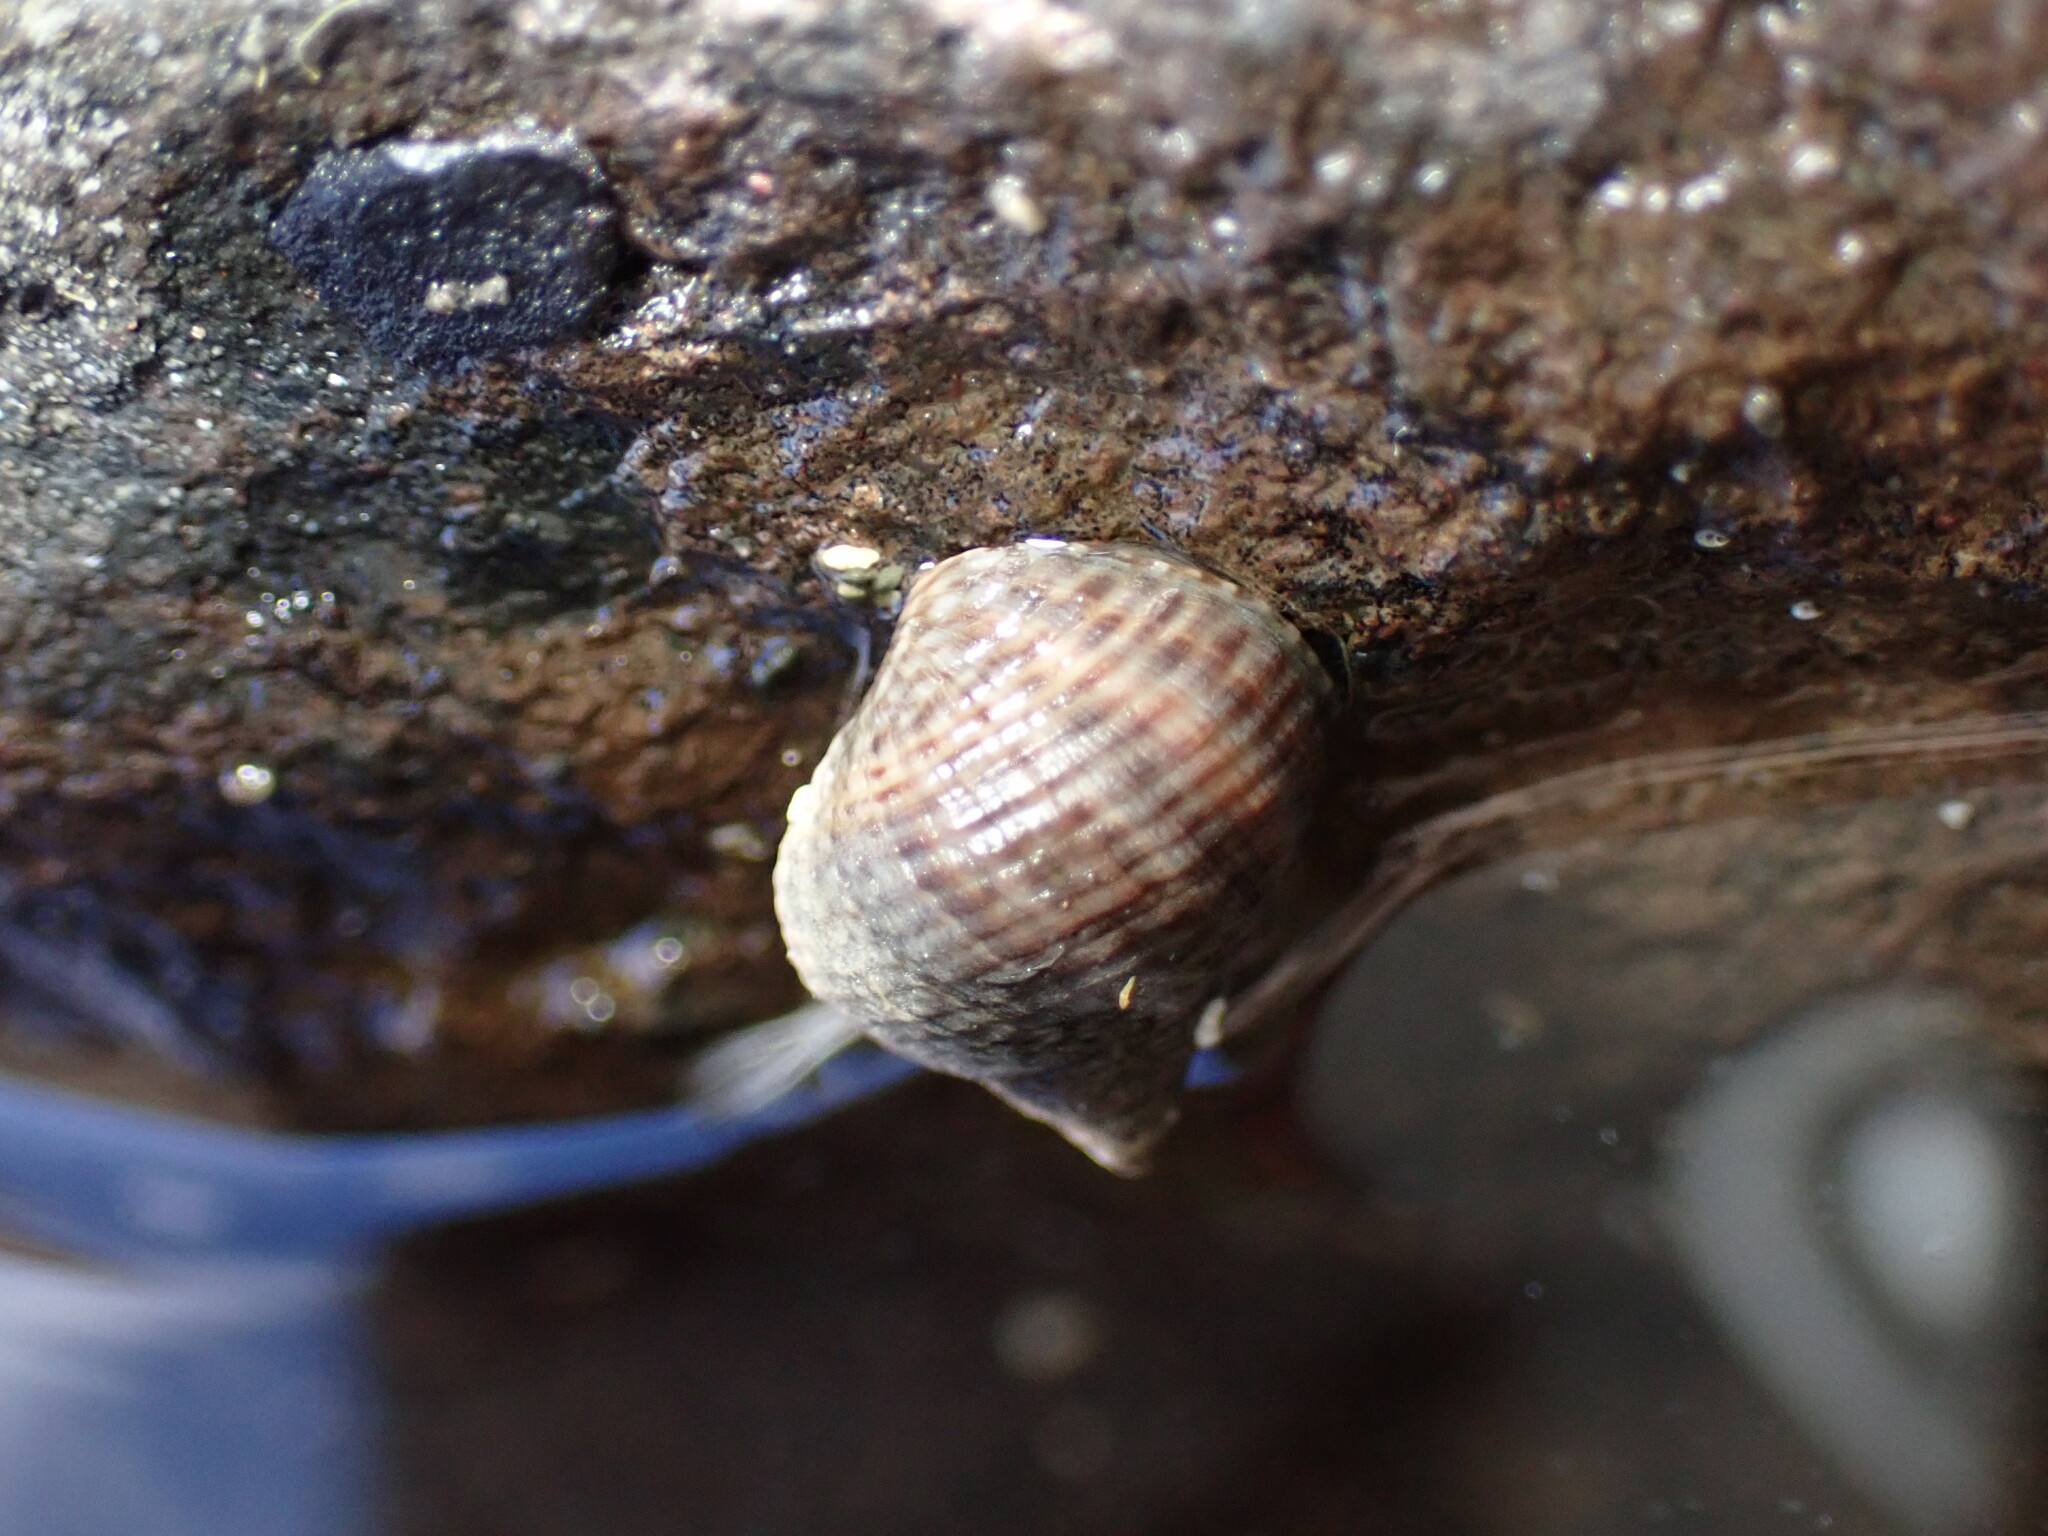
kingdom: Animalia
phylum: Mollusca
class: Gastropoda
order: Littorinimorpha
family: Littorinidae
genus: Tectarius
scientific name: Tectarius striatus
